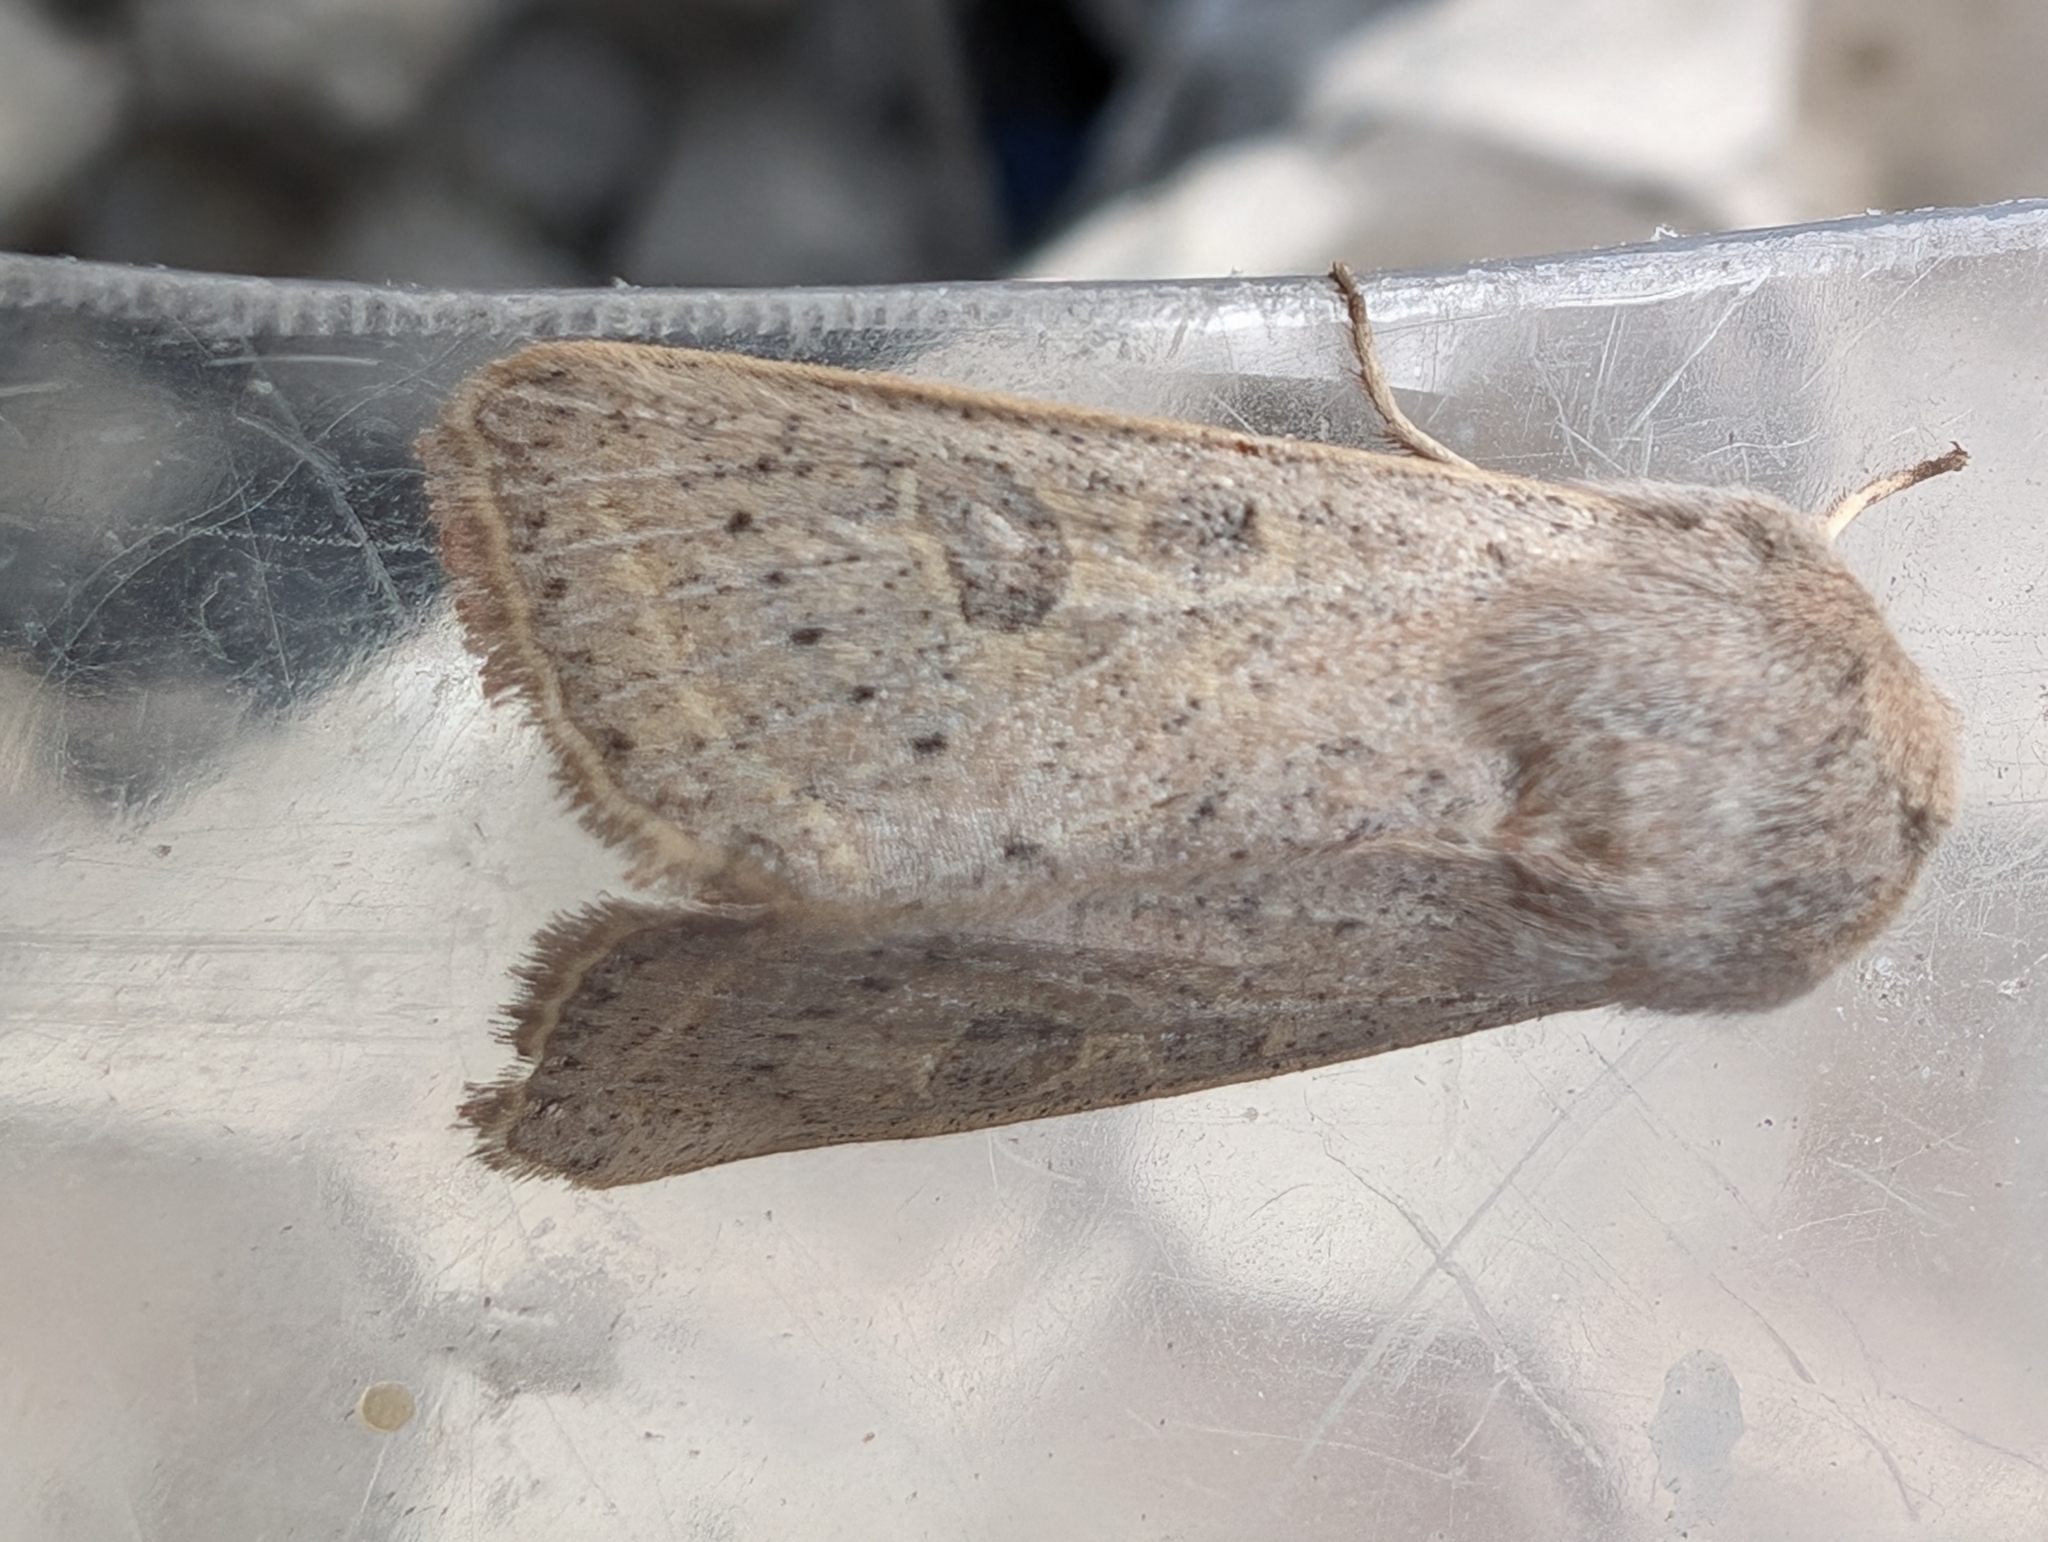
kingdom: Animalia
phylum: Arthropoda
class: Insecta
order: Lepidoptera
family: Noctuidae
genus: Orthosia
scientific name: Orthosia gracilis
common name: Powdered quaker
